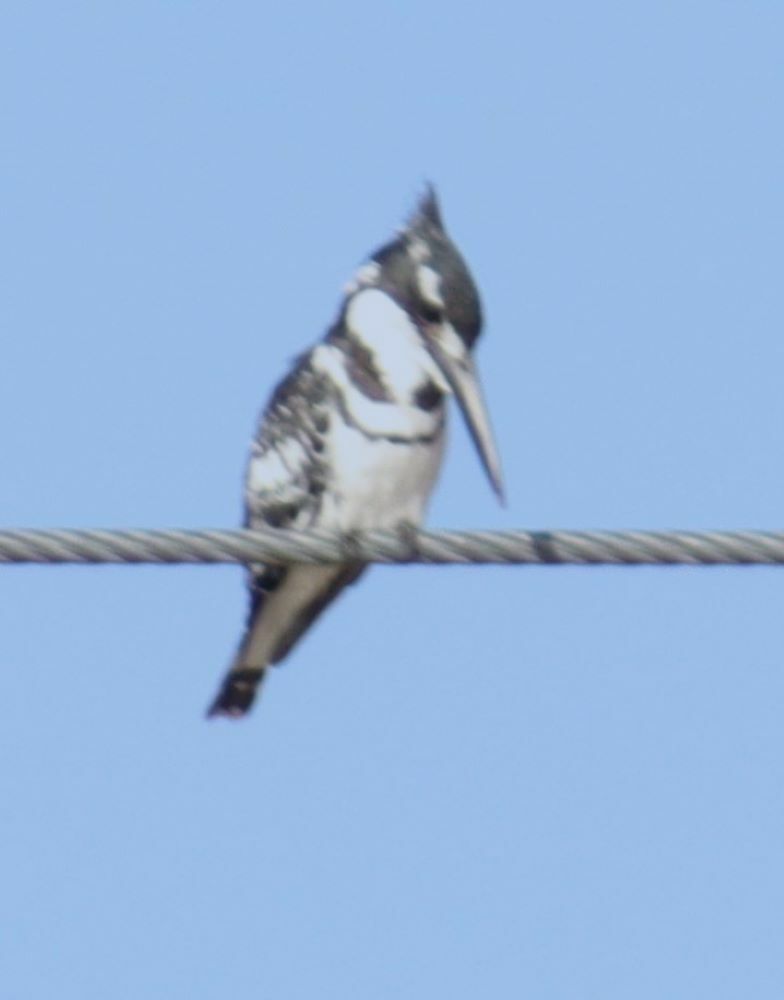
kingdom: Animalia
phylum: Chordata
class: Aves
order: Coraciiformes
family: Alcedinidae
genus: Ceryle
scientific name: Ceryle rudis
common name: Pied kingfisher
